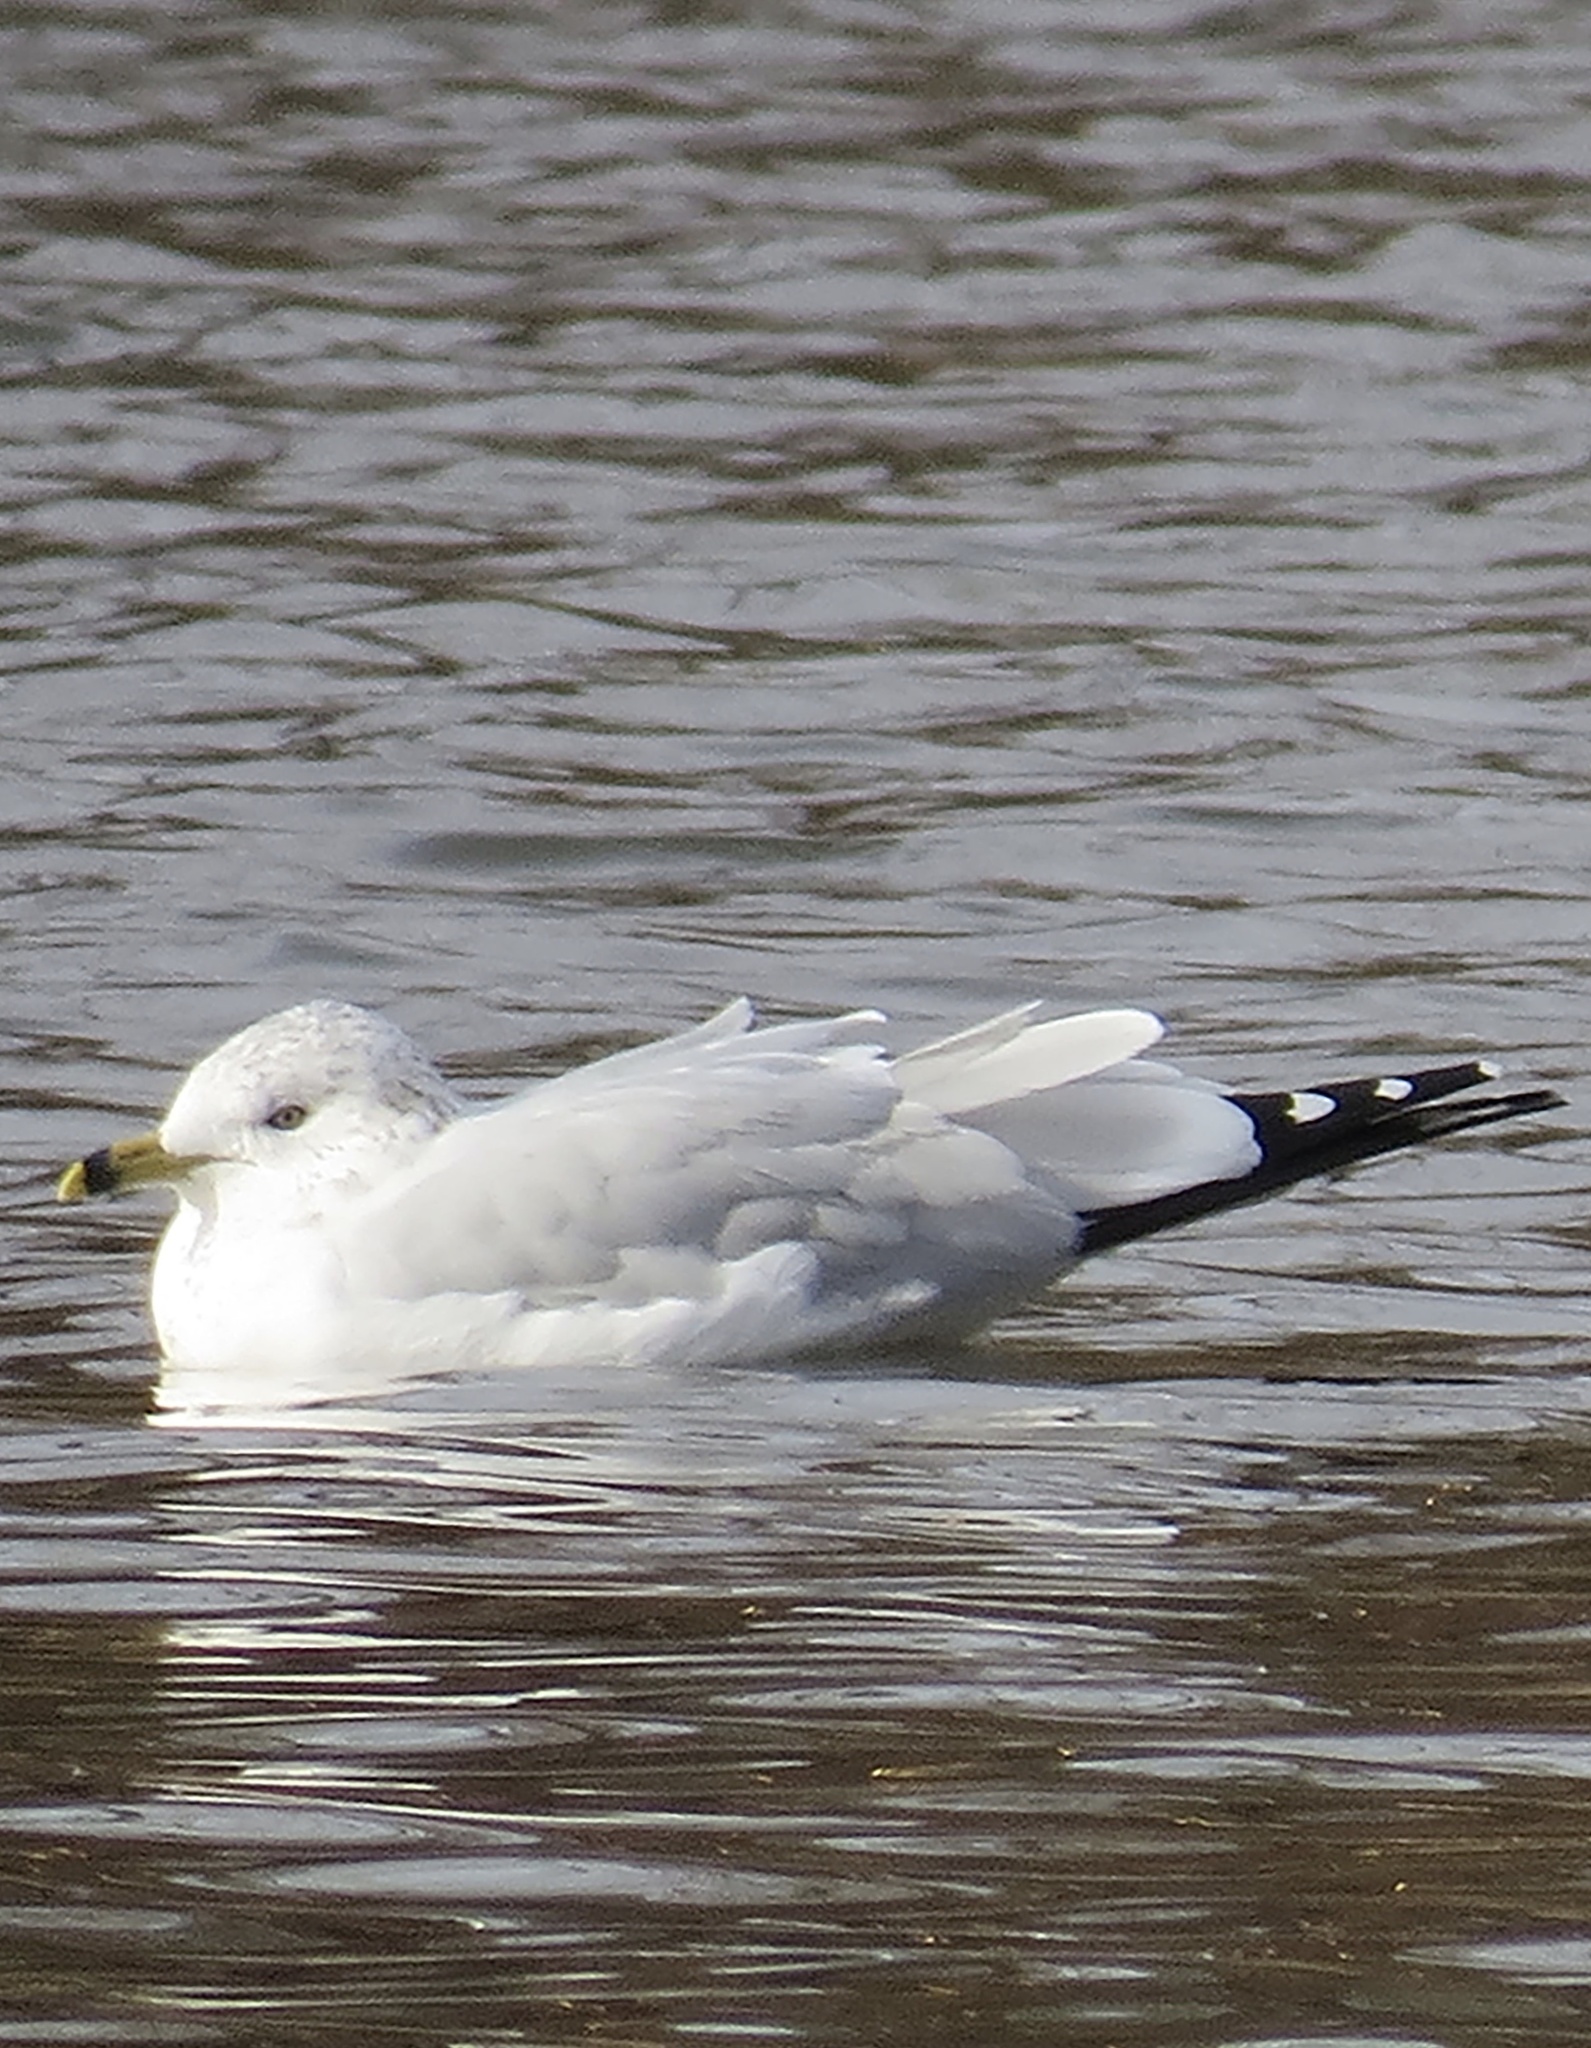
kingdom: Animalia
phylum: Chordata
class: Aves
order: Charadriiformes
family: Laridae
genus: Larus
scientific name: Larus delawarensis
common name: Ring-billed gull
